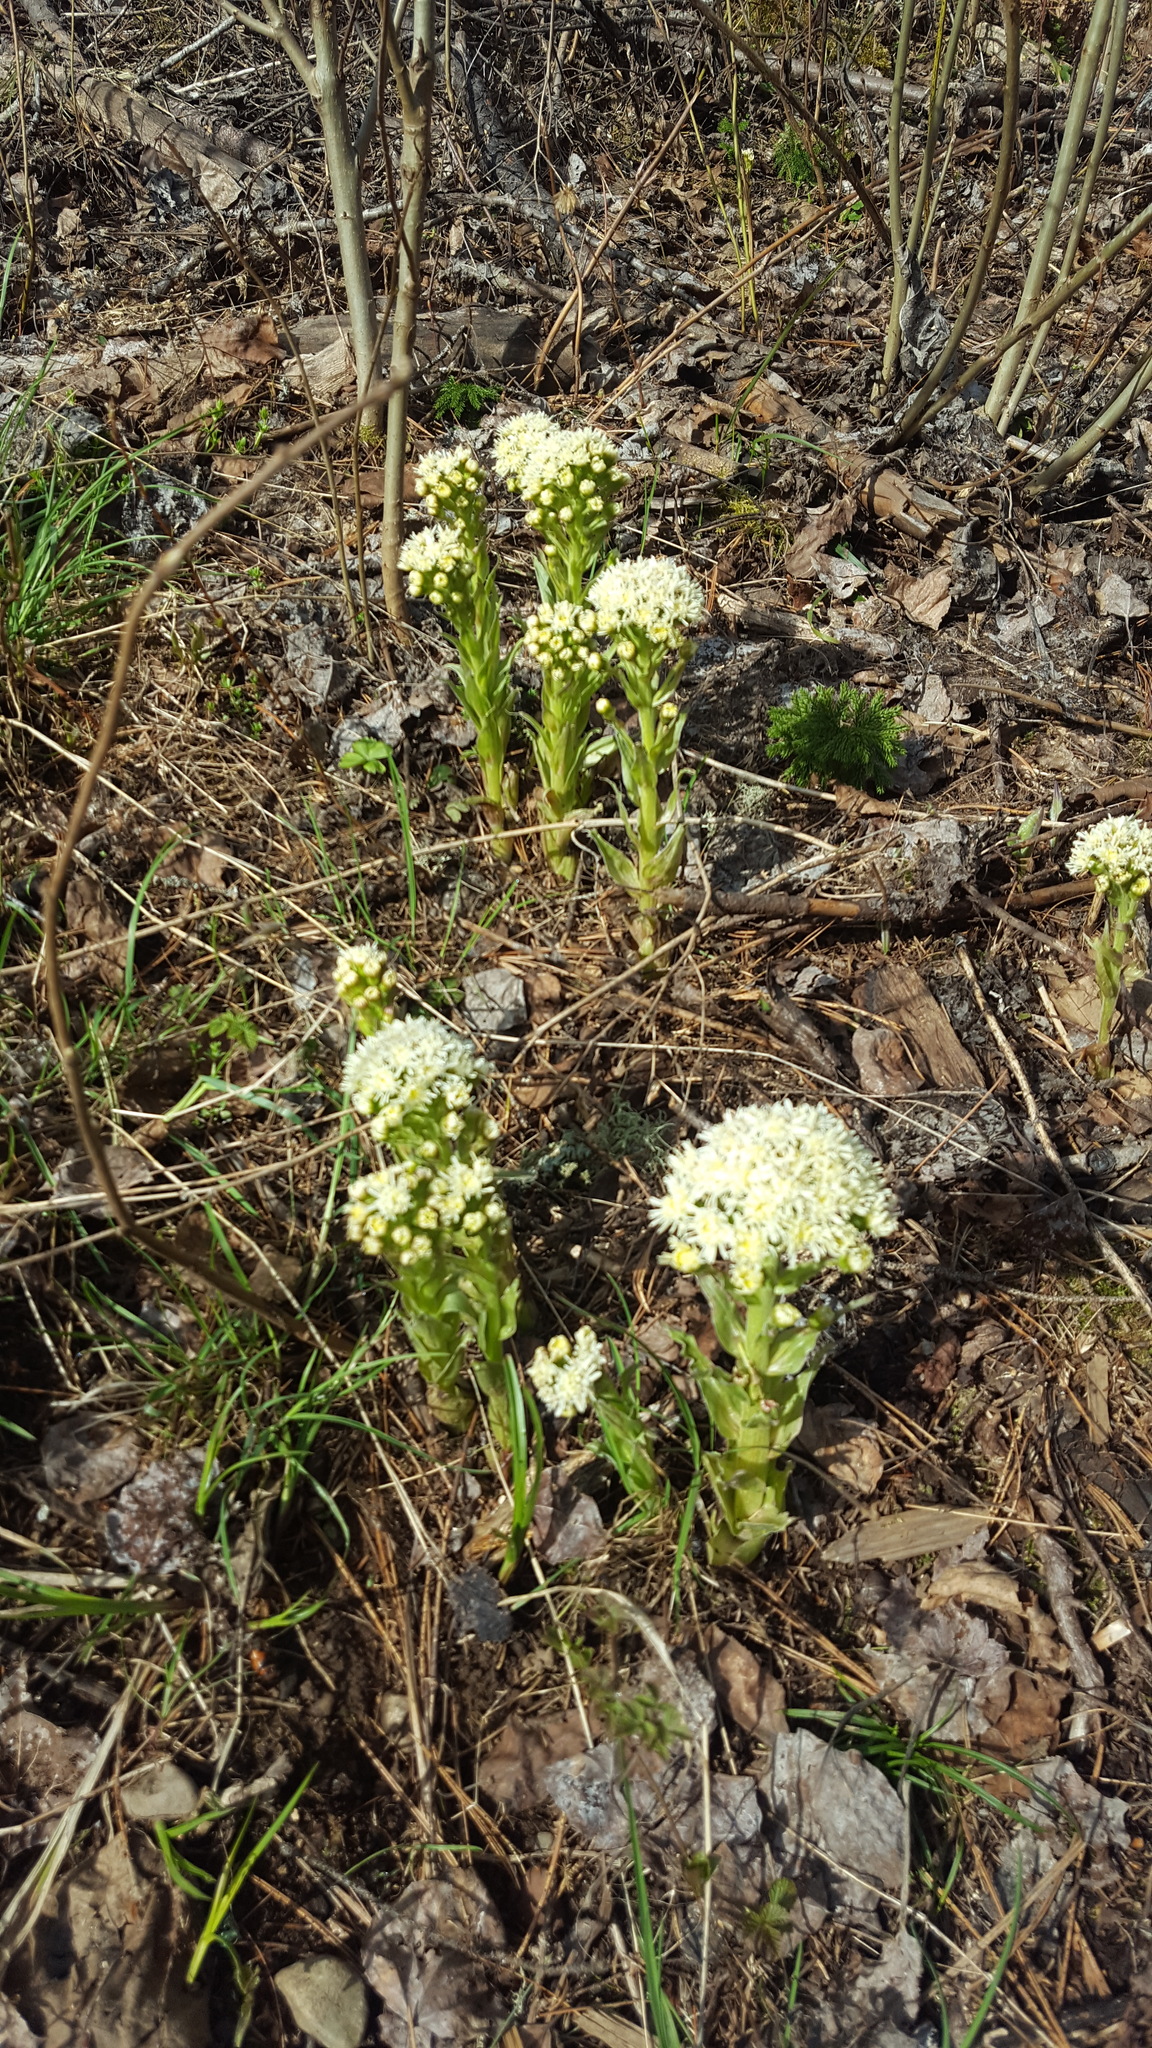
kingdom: Plantae
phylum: Tracheophyta
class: Magnoliopsida
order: Asterales
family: Asteraceae
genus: Petasites
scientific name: Petasites frigidus
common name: Arctic butterbur
